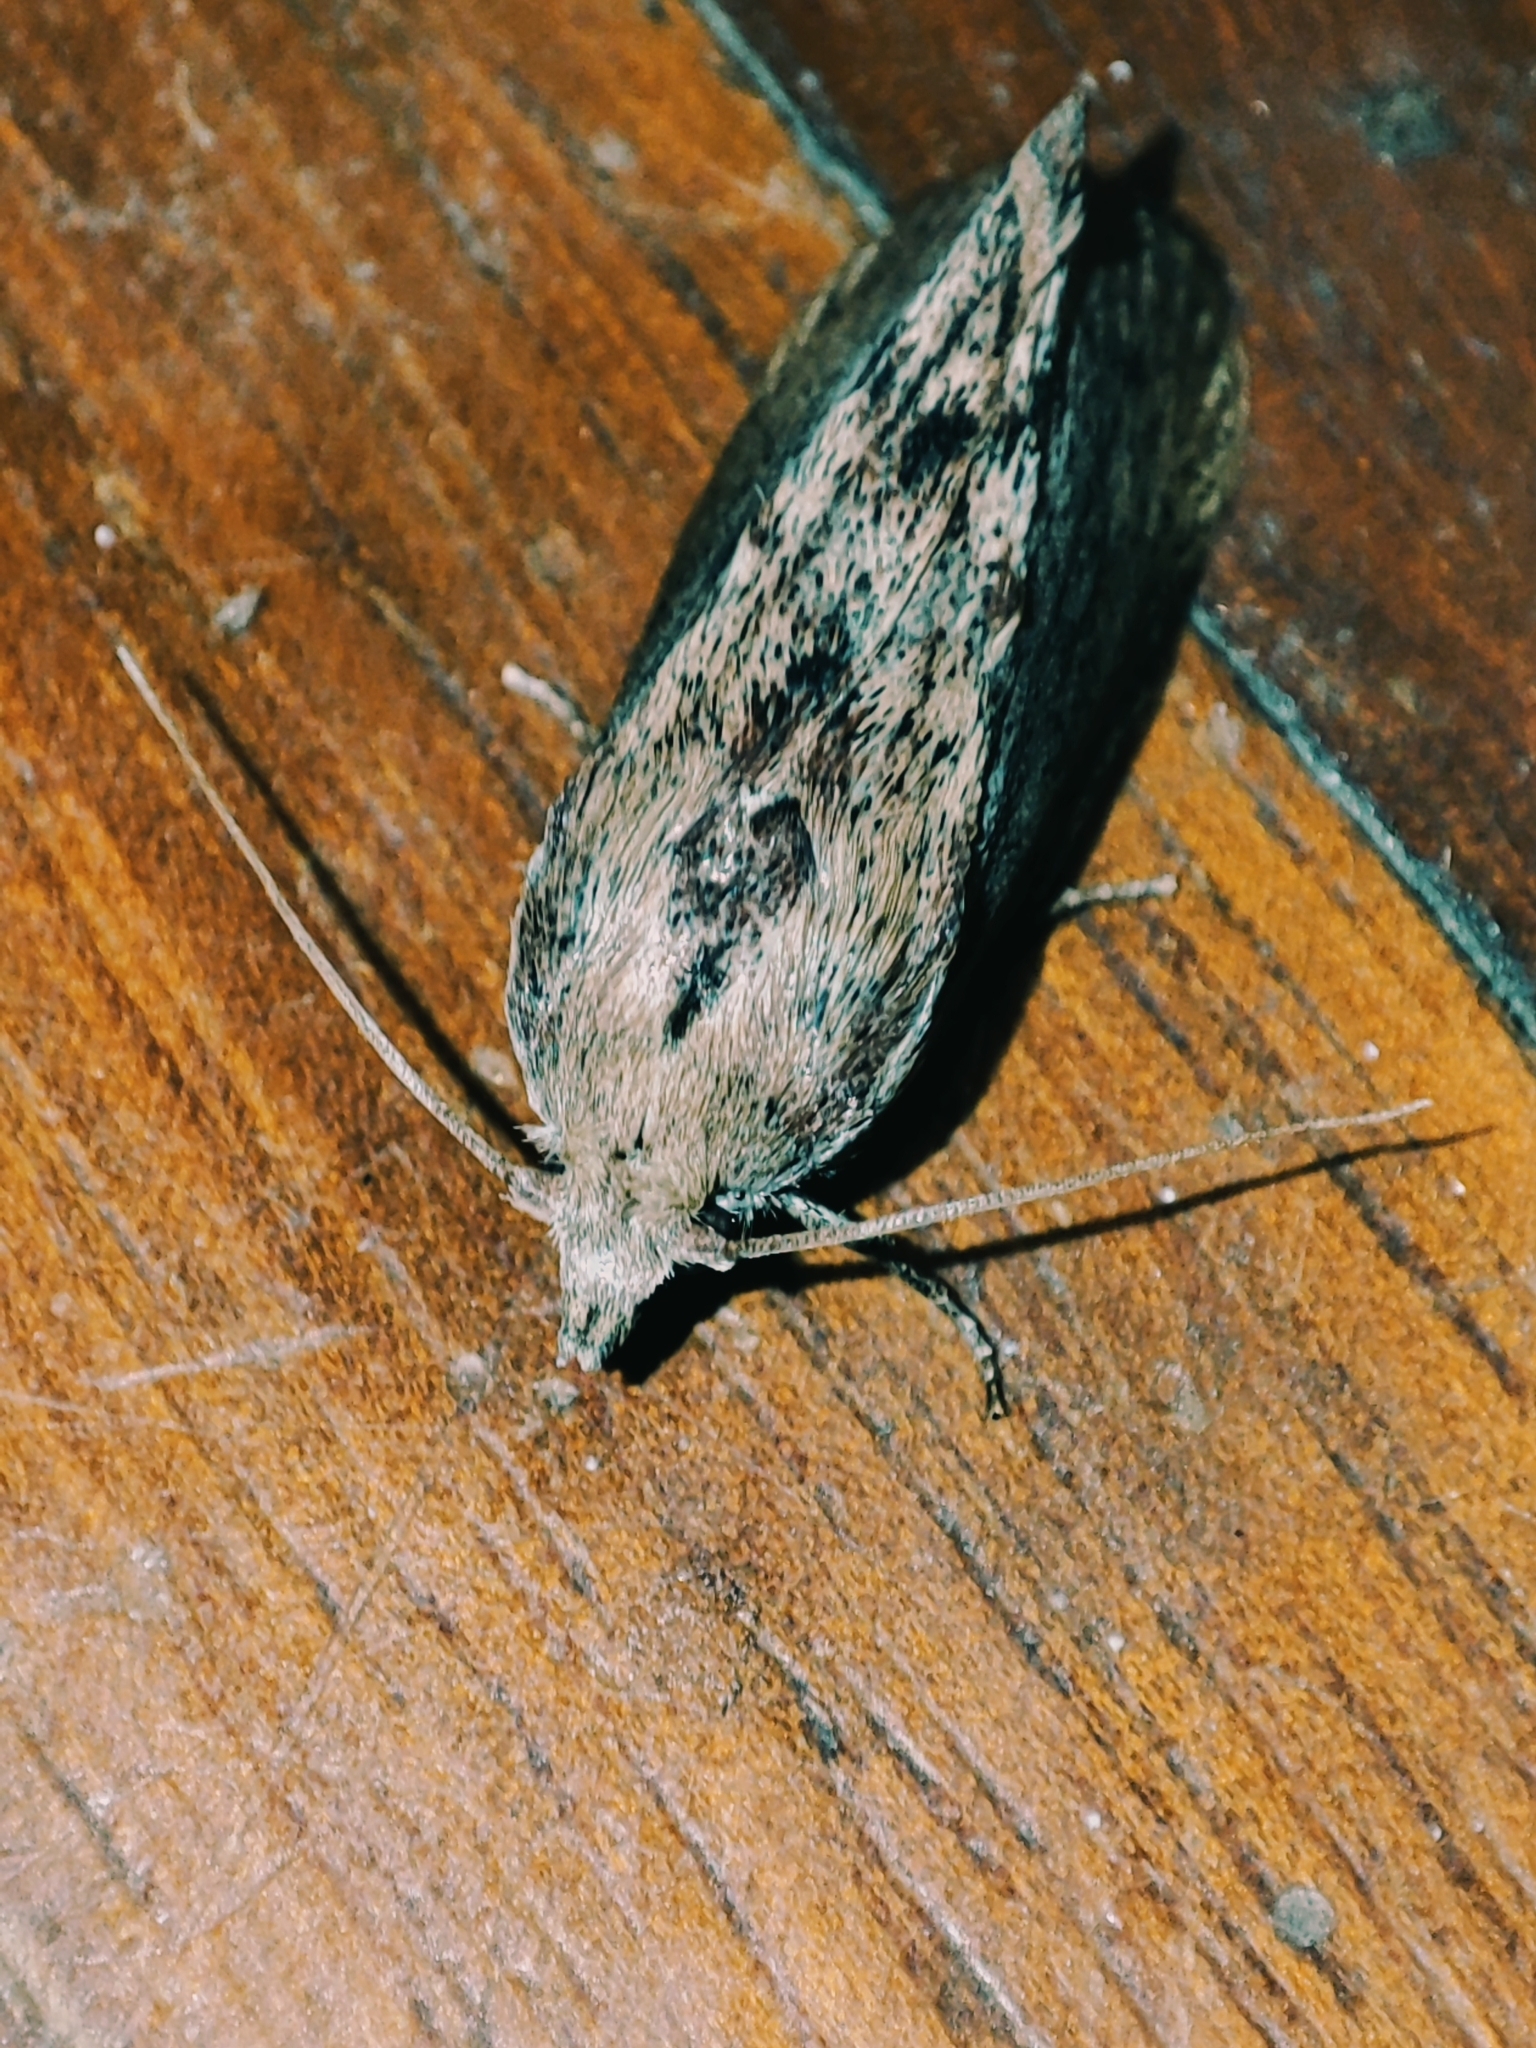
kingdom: Animalia
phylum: Arthropoda
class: Insecta
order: Lepidoptera
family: Pyralidae
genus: Galleria
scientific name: Galleria mellonella
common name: Greater wax moth
